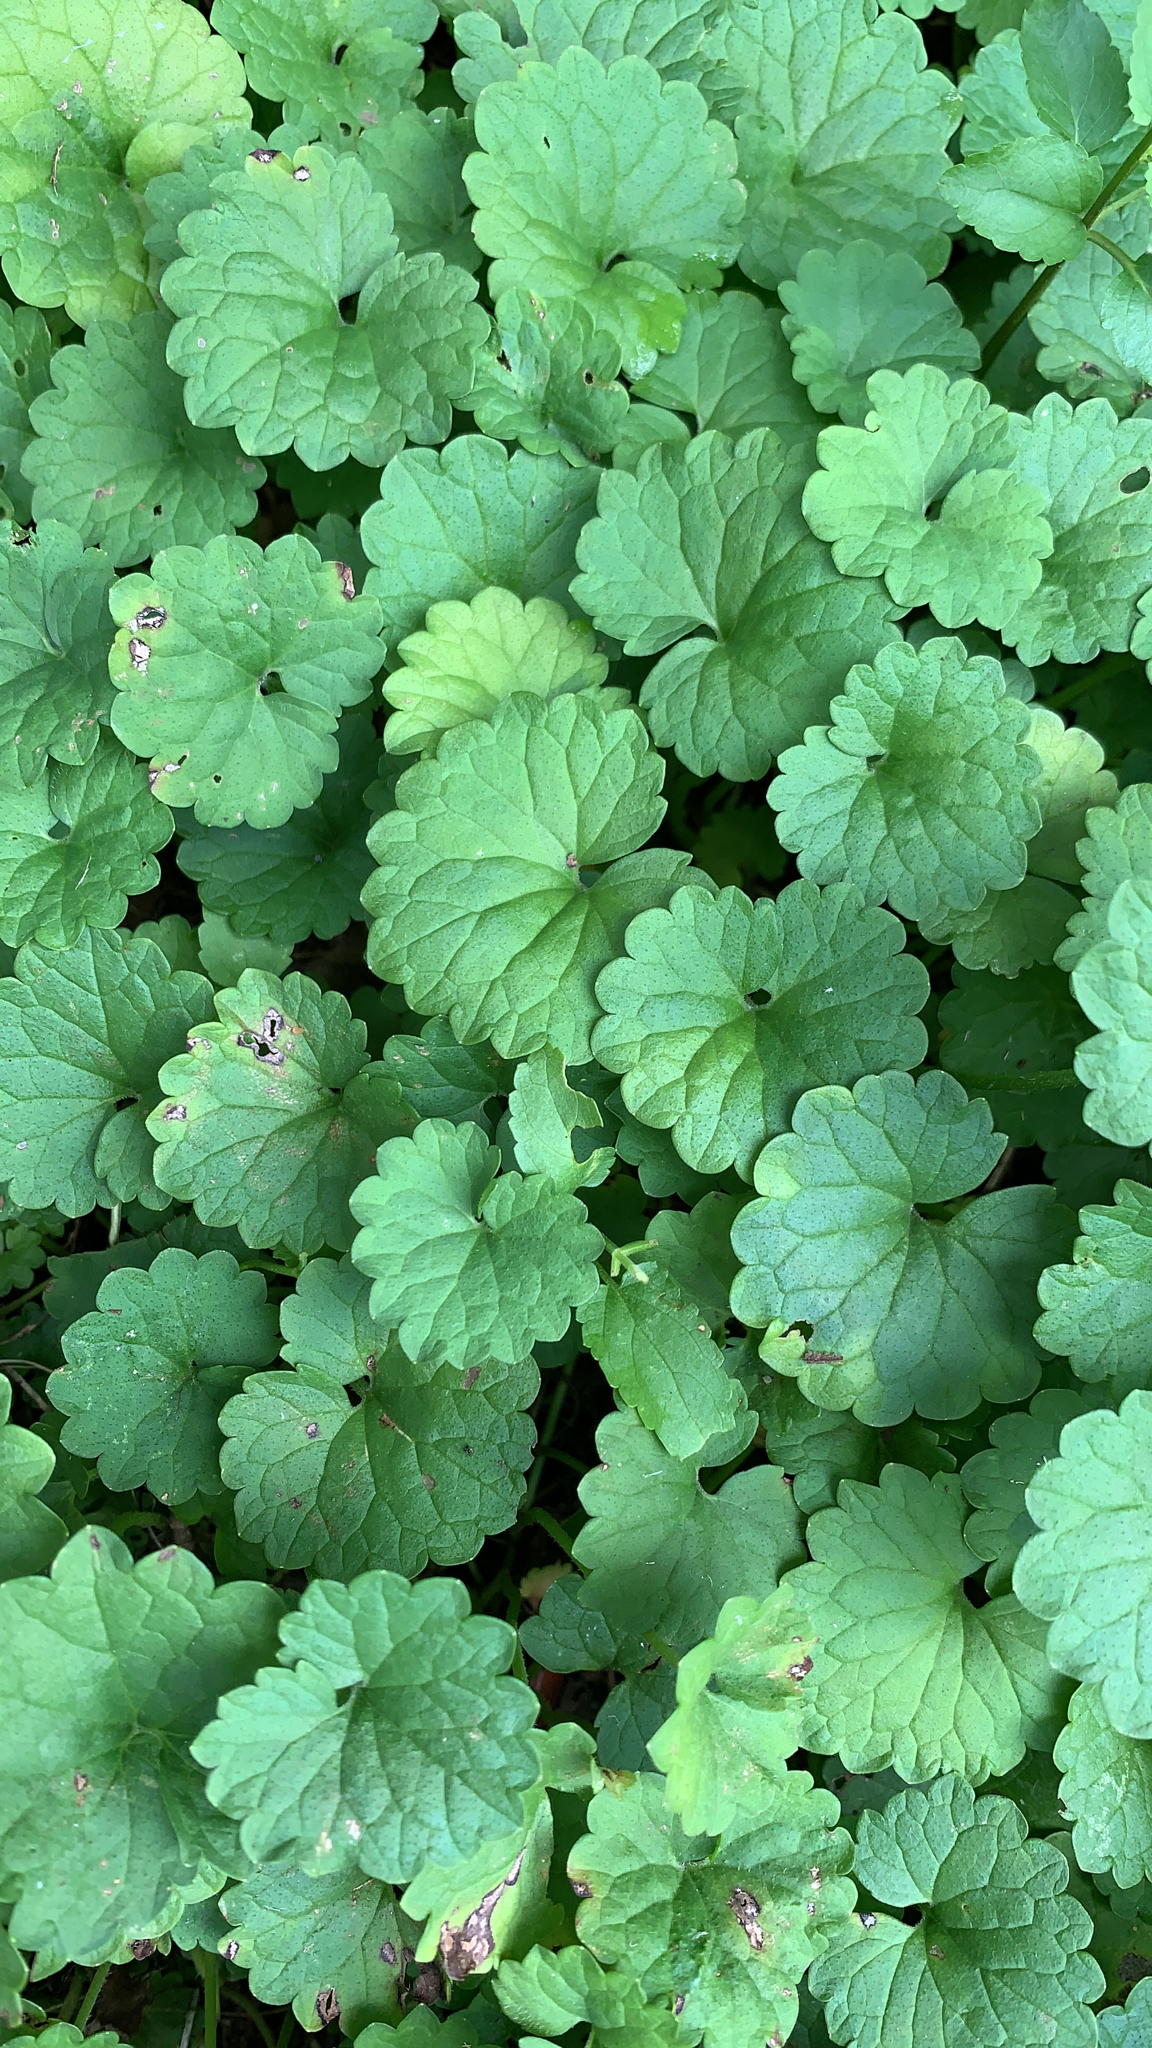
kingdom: Plantae
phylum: Tracheophyta
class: Magnoliopsida
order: Lamiales
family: Lamiaceae
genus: Glechoma
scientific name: Glechoma hederacea
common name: Ground ivy
